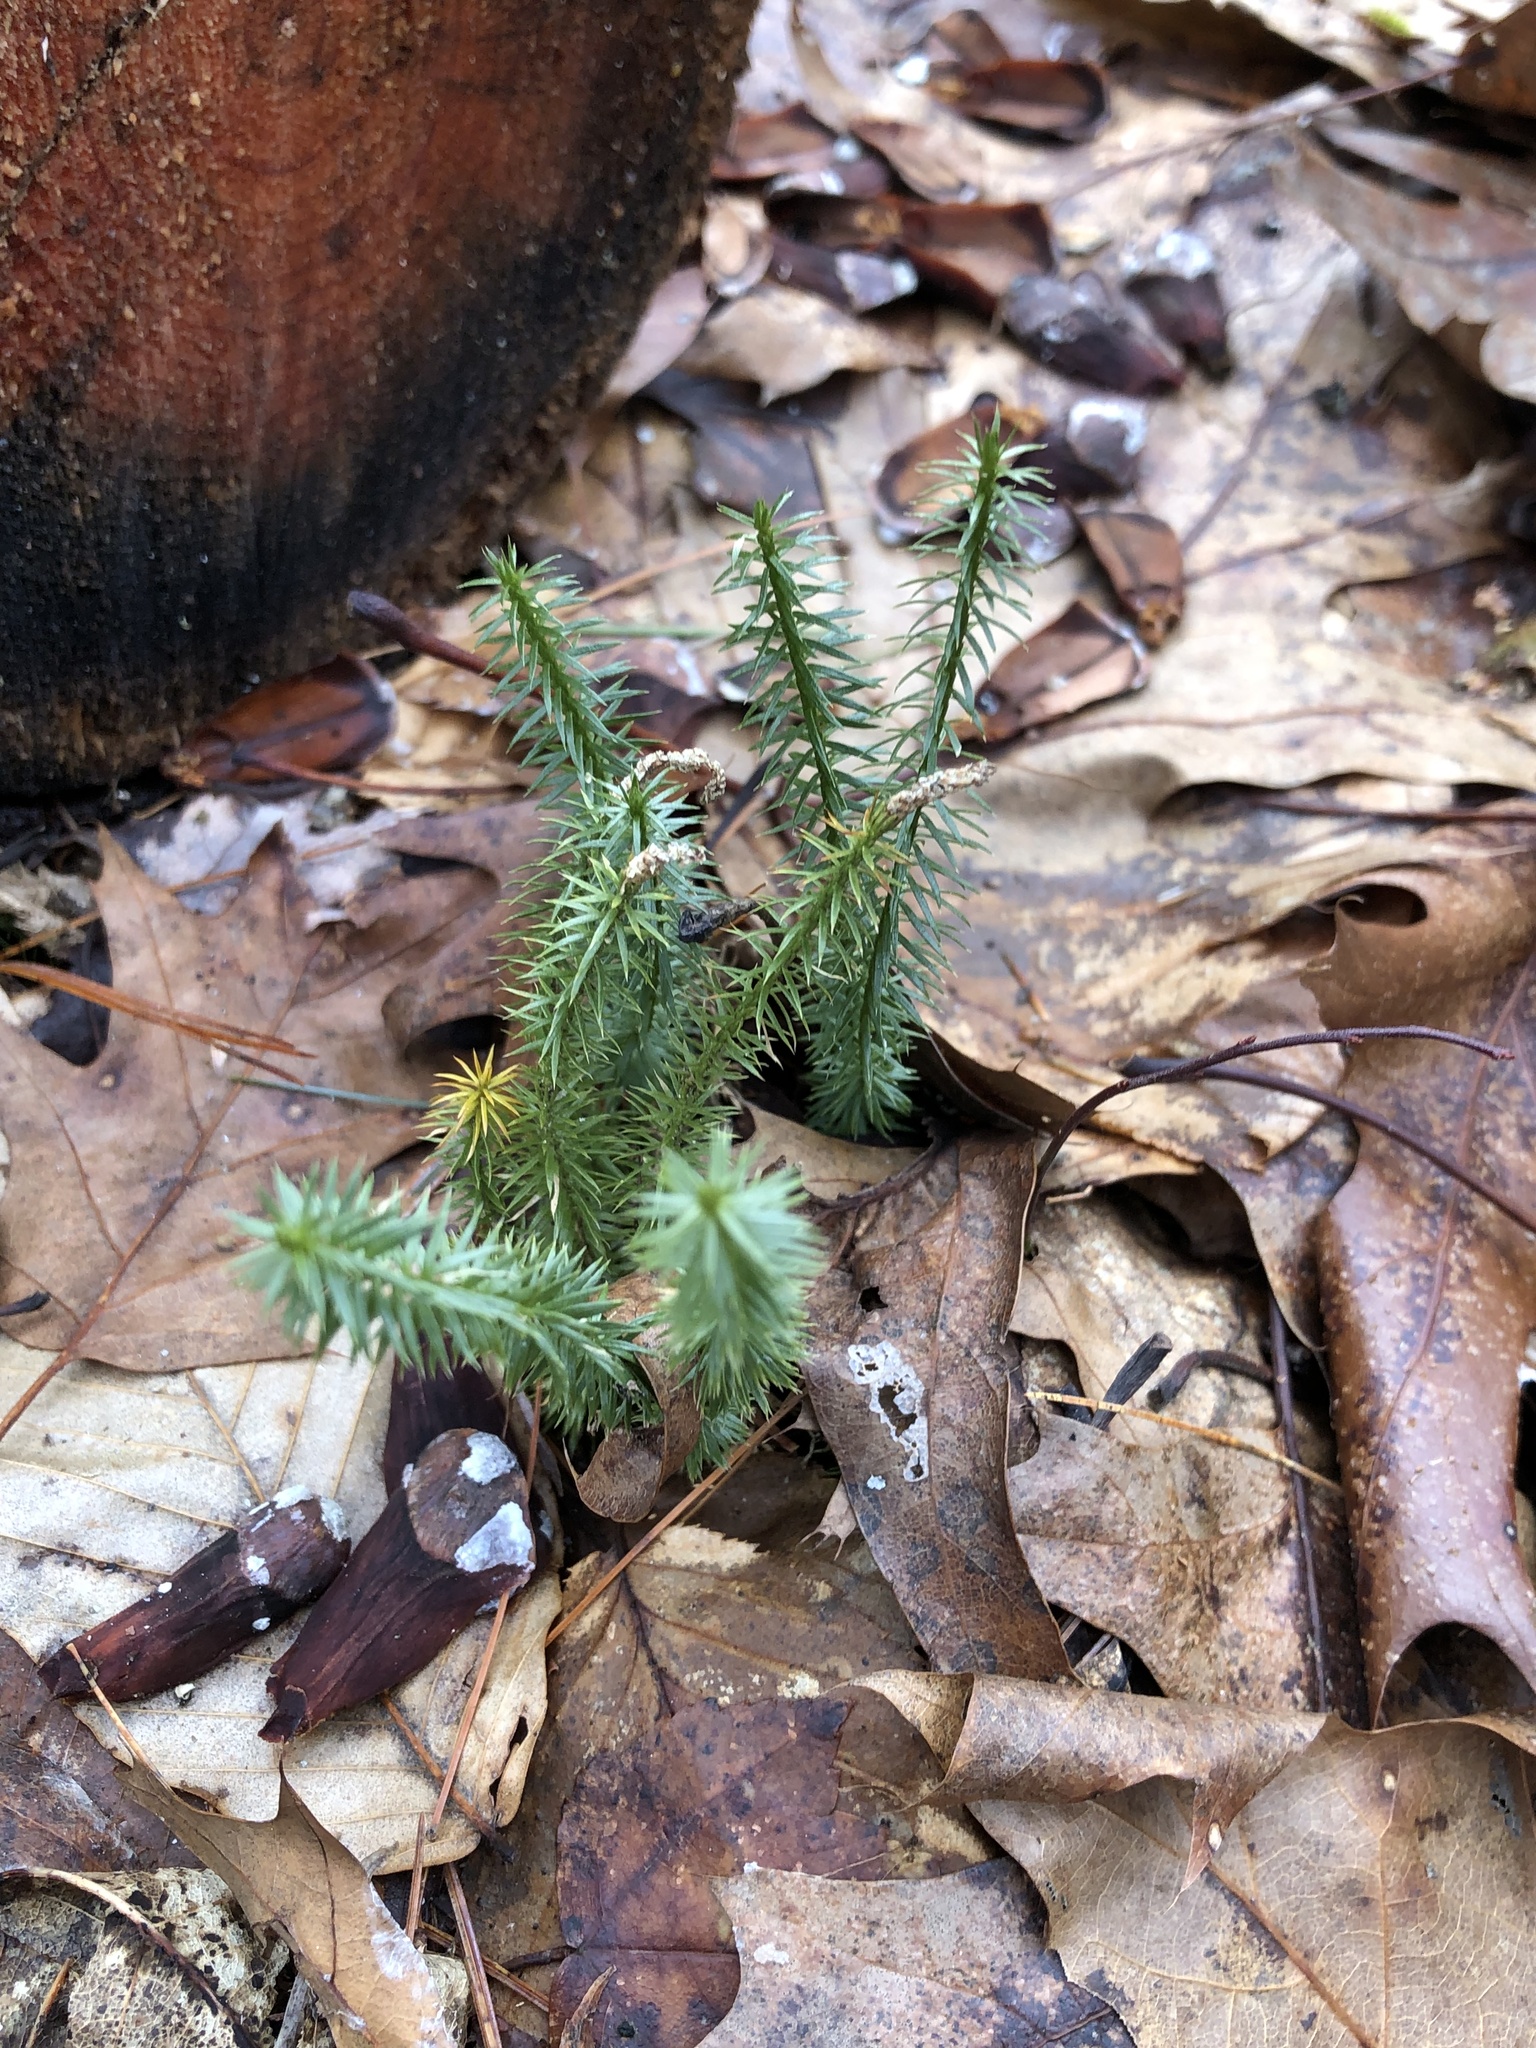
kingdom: Plantae
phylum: Tracheophyta
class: Lycopodiopsida
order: Lycopodiales
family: Lycopodiaceae
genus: Spinulum
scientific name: Spinulum annotinum
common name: Interrupted club-moss
